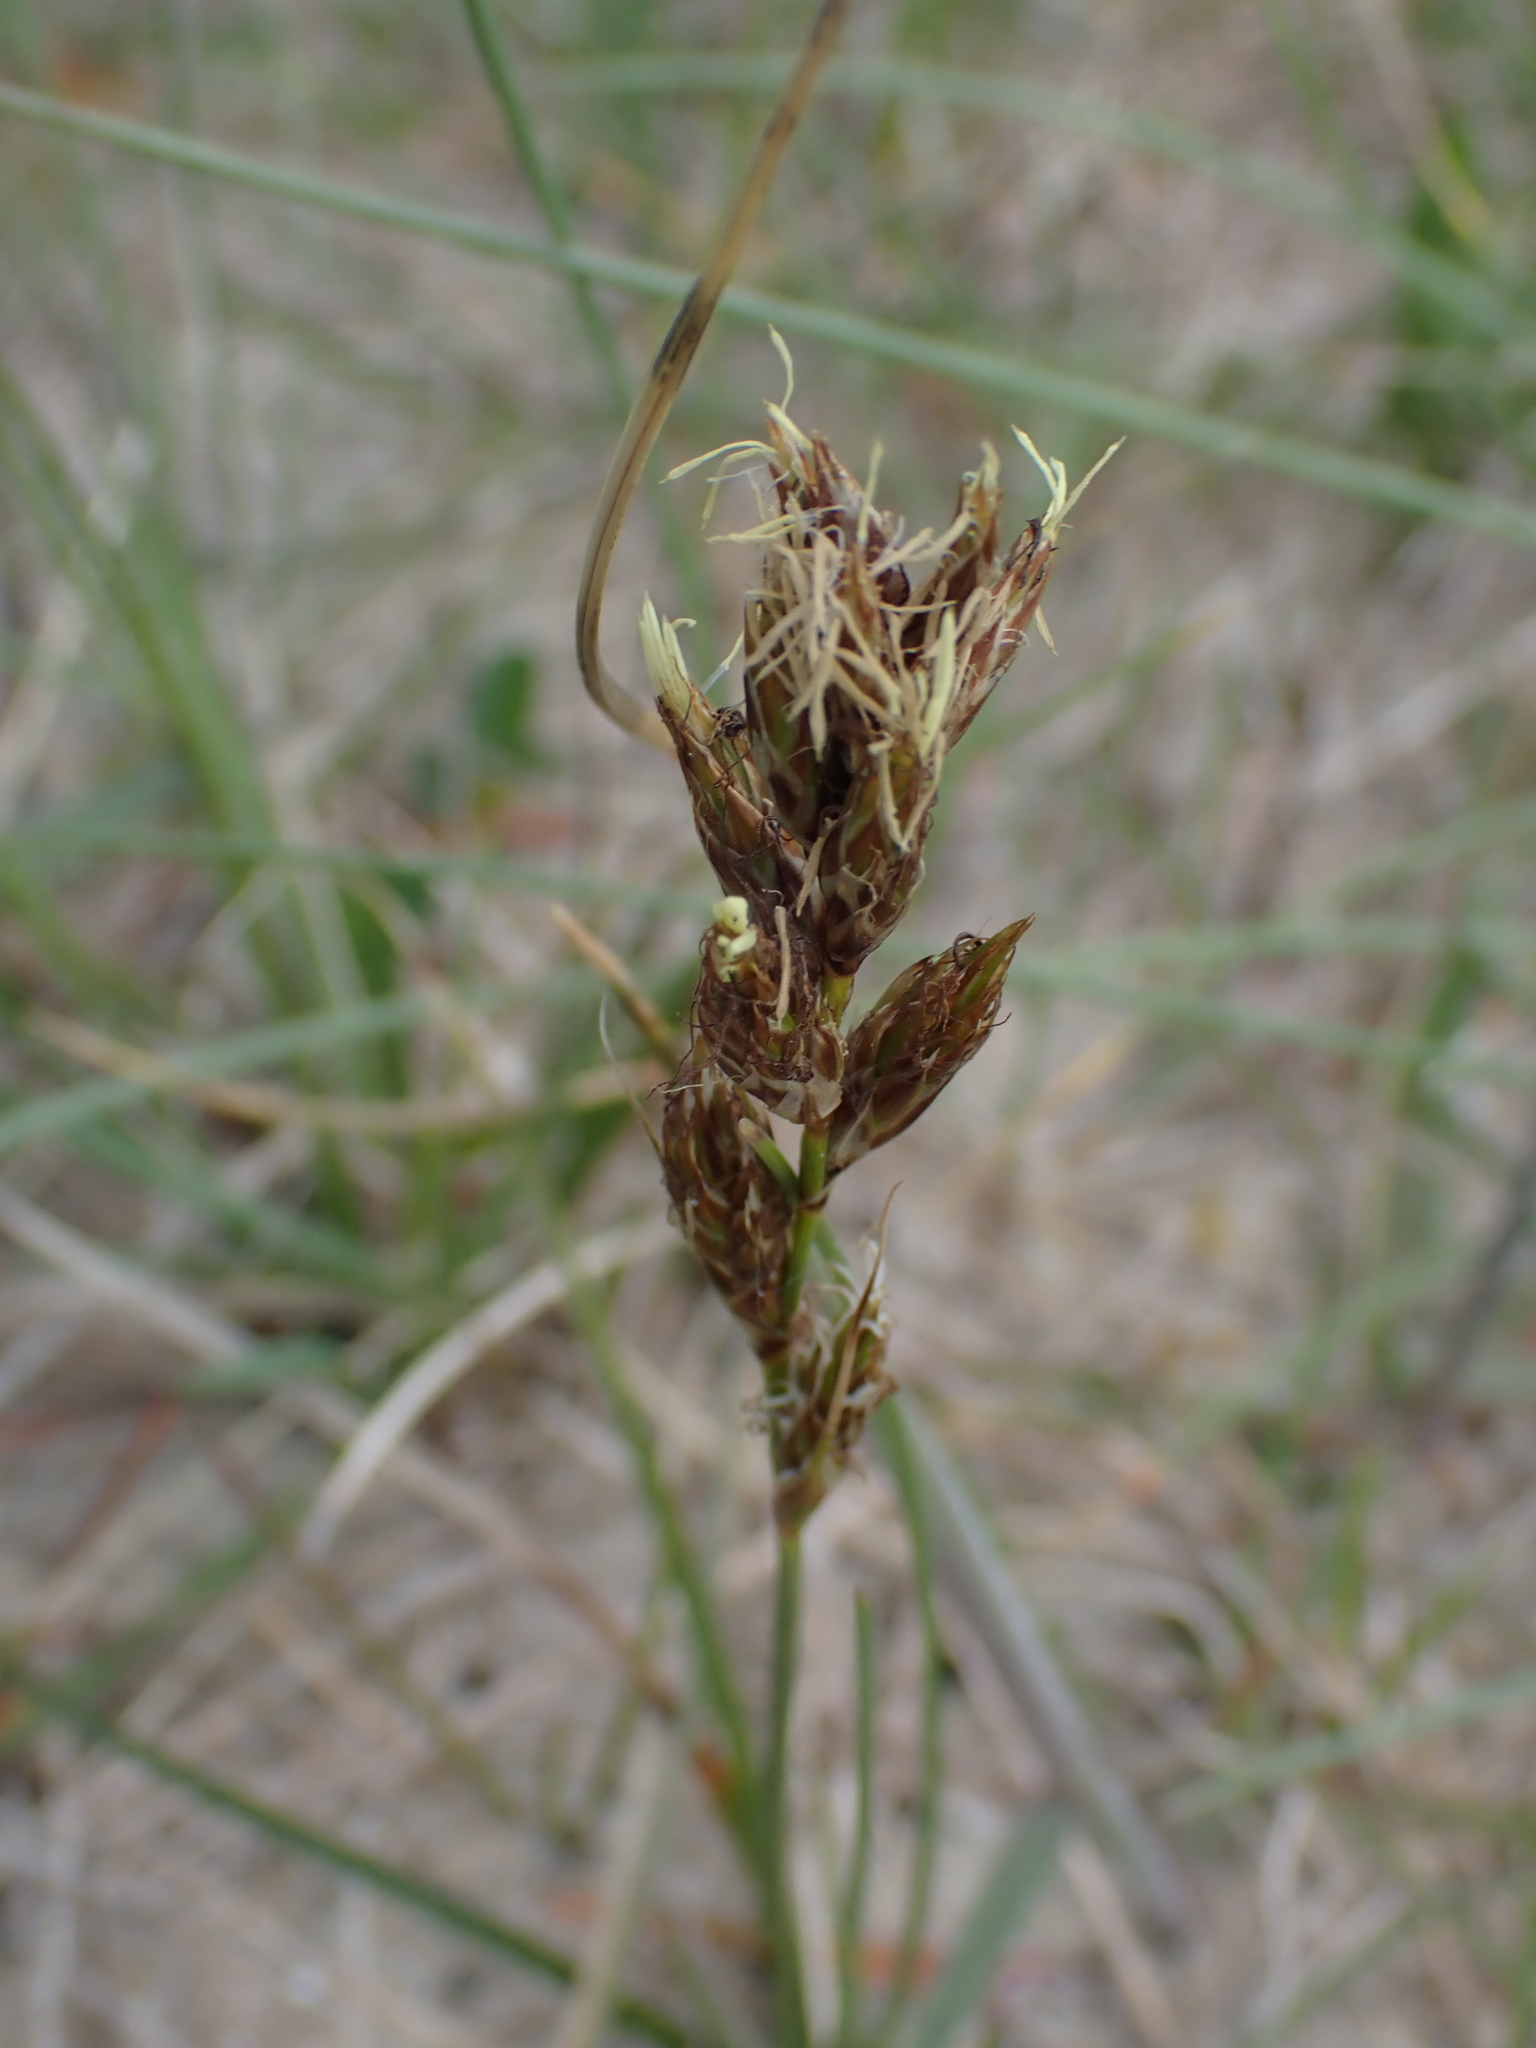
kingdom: Plantae
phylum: Tracheophyta
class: Liliopsida
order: Poales
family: Cyperaceae
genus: Carex
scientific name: Carex arenaria
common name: Sand sedge
